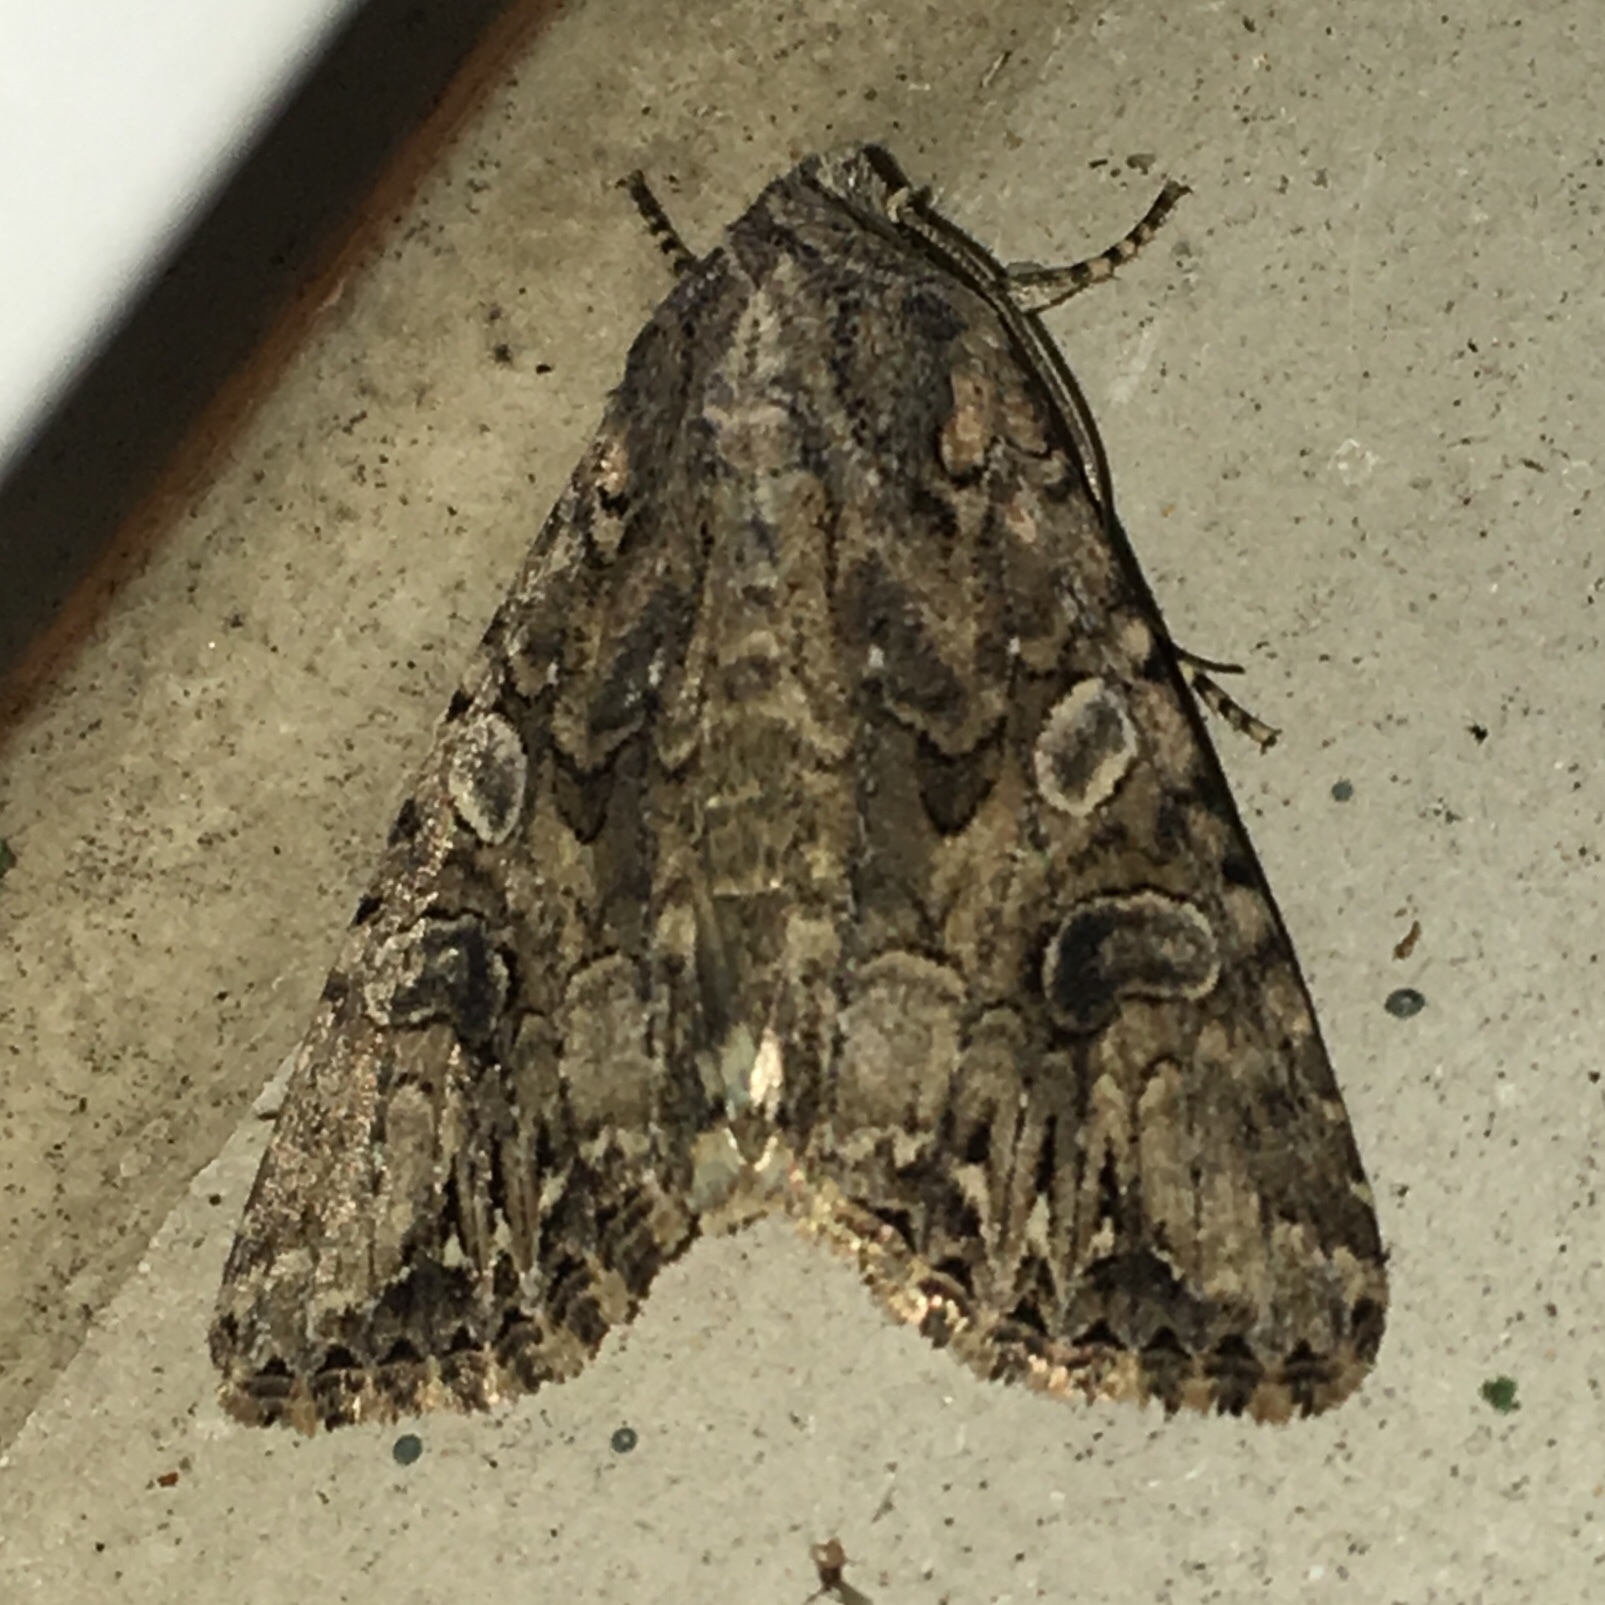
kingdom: Animalia
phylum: Arthropoda
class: Insecta
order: Lepidoptera
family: Noctuidae
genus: Anarta
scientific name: Anarta trifolii
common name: Clover cutworm moth
